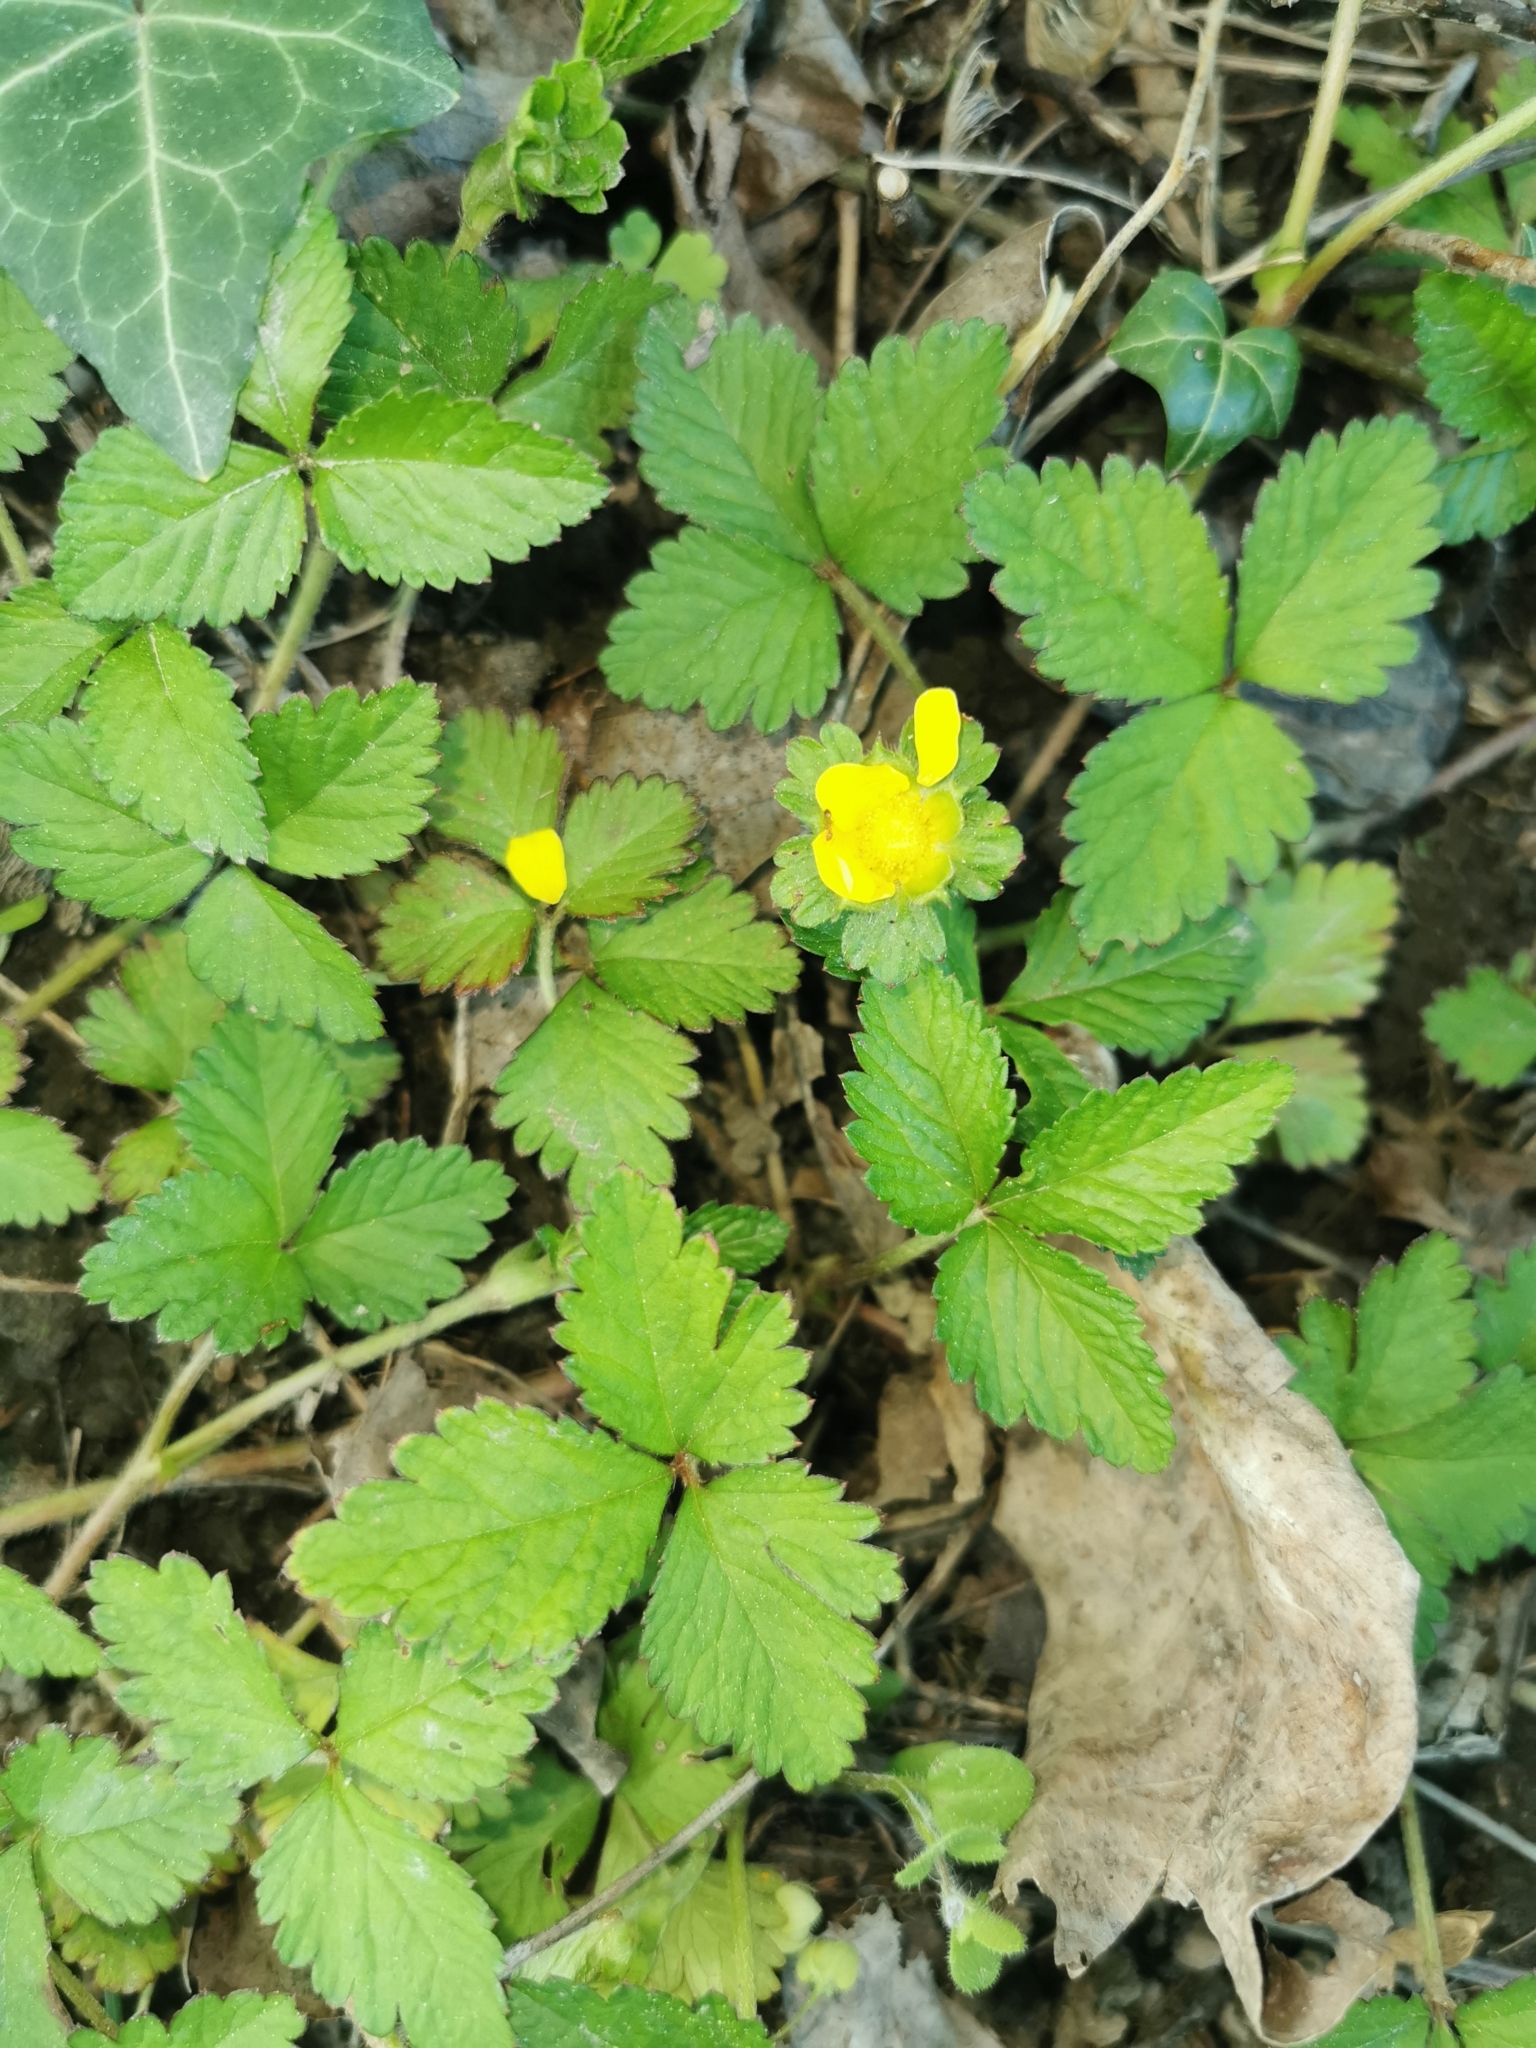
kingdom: Plantae
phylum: Tracheophyta
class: Magnoliopsida
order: Rosales
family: Rosaceae
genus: Potentilla
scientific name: Potentilla indica
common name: Yellow-flowered strawberry
